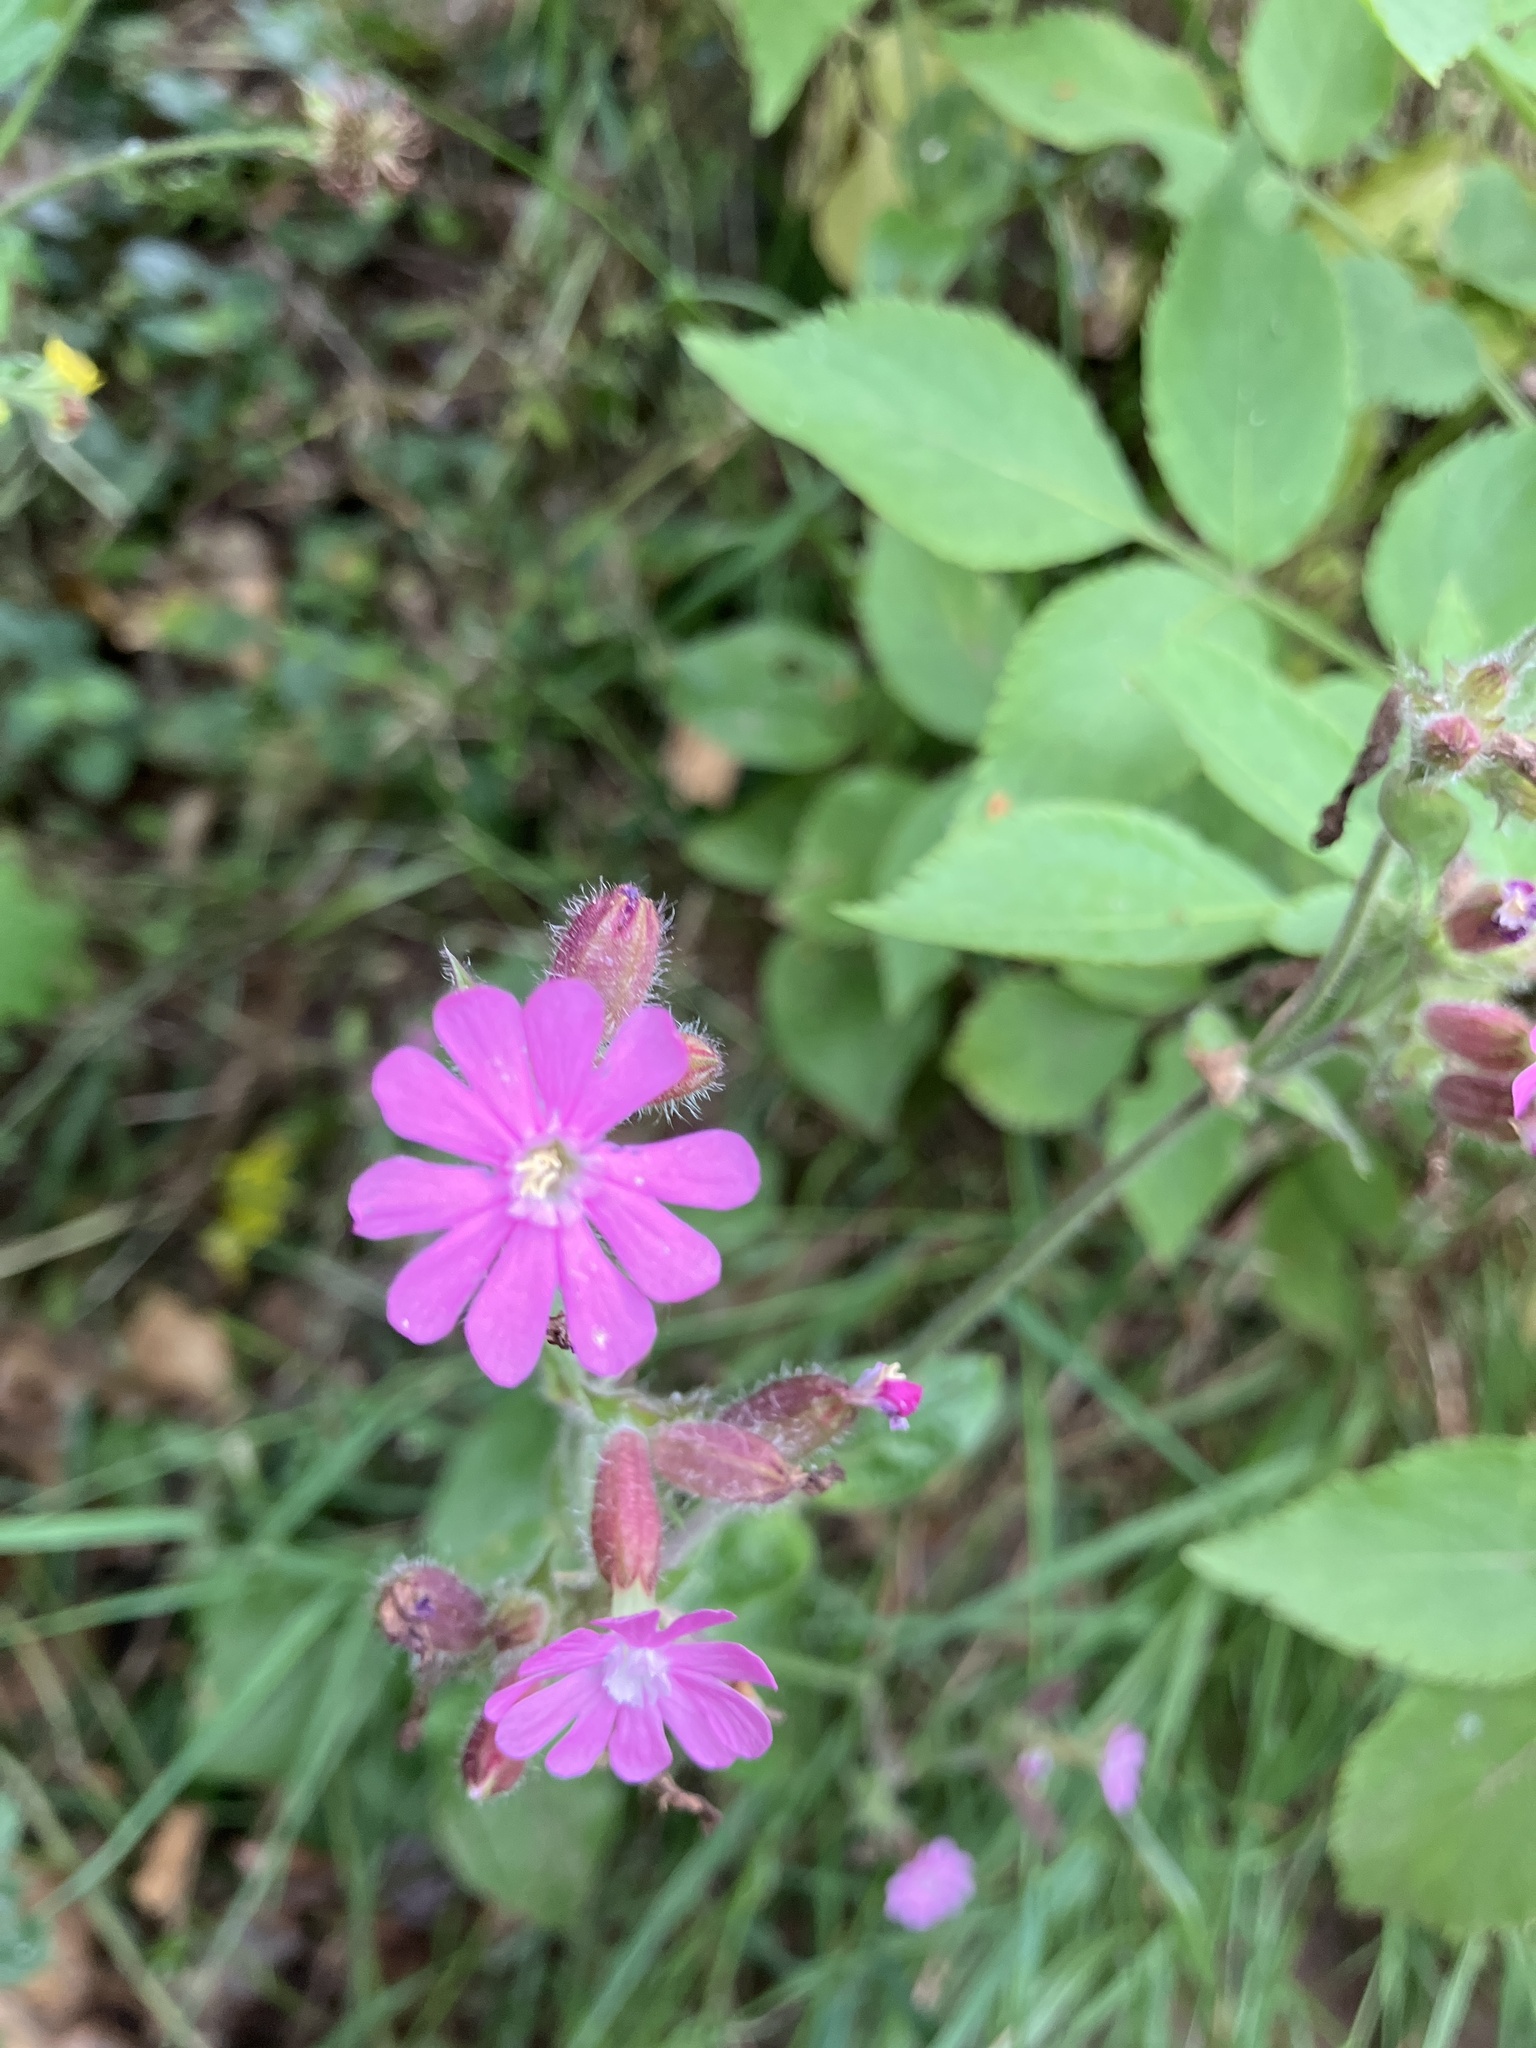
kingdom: Plantae
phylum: Tracheophyta
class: Magnoliopsida
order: Caryophyllales
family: Caryophyllaceae
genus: Silene
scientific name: Silene dioica
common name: Red campion
